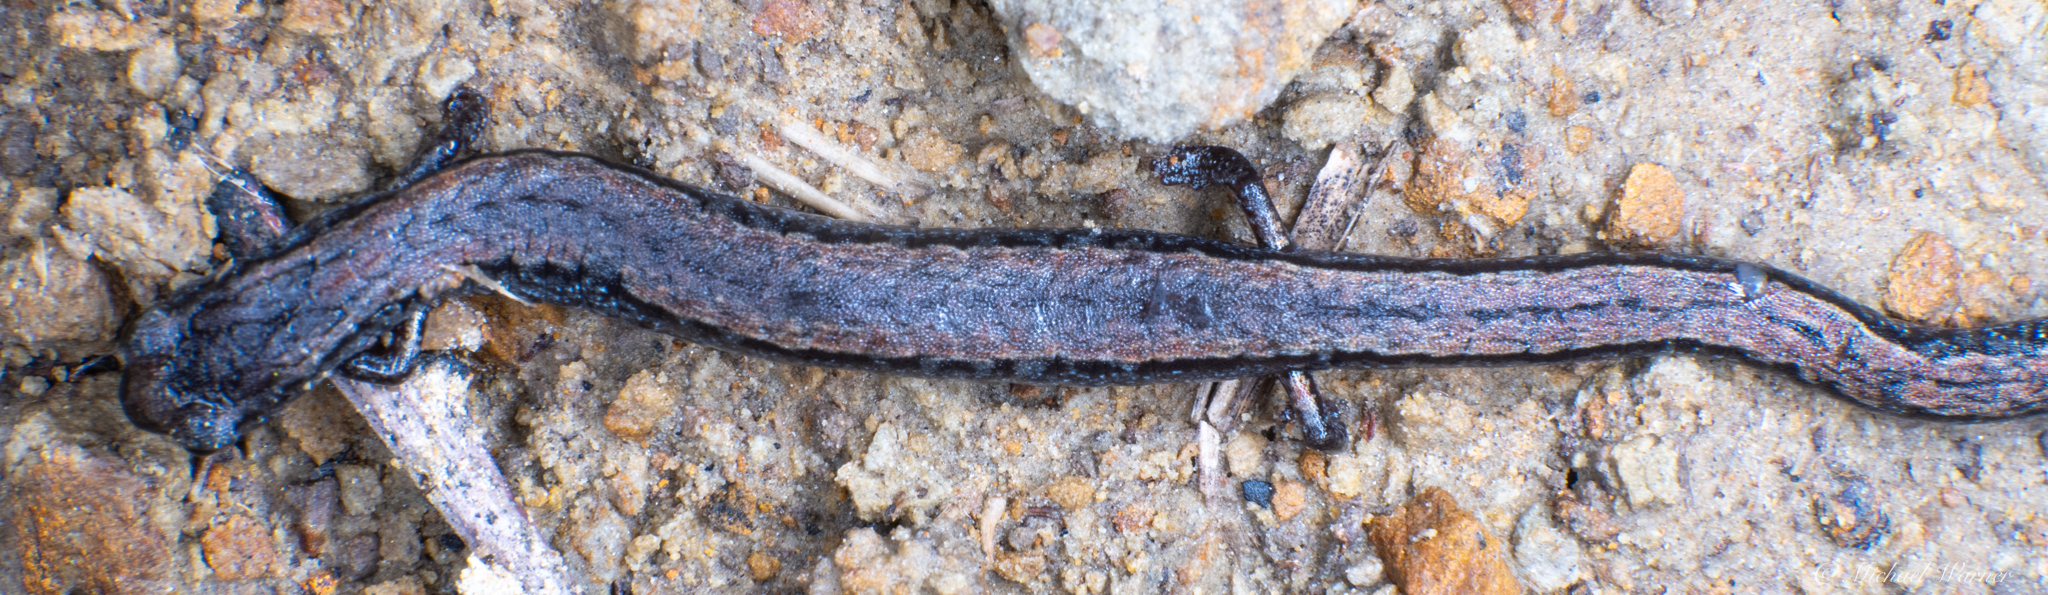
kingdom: Animalia
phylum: Chordata
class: Amphibia
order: Caudata
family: Plethodontidae
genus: Batrachoseps
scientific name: Batrachoseps attenuatus
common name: California slender salamander
